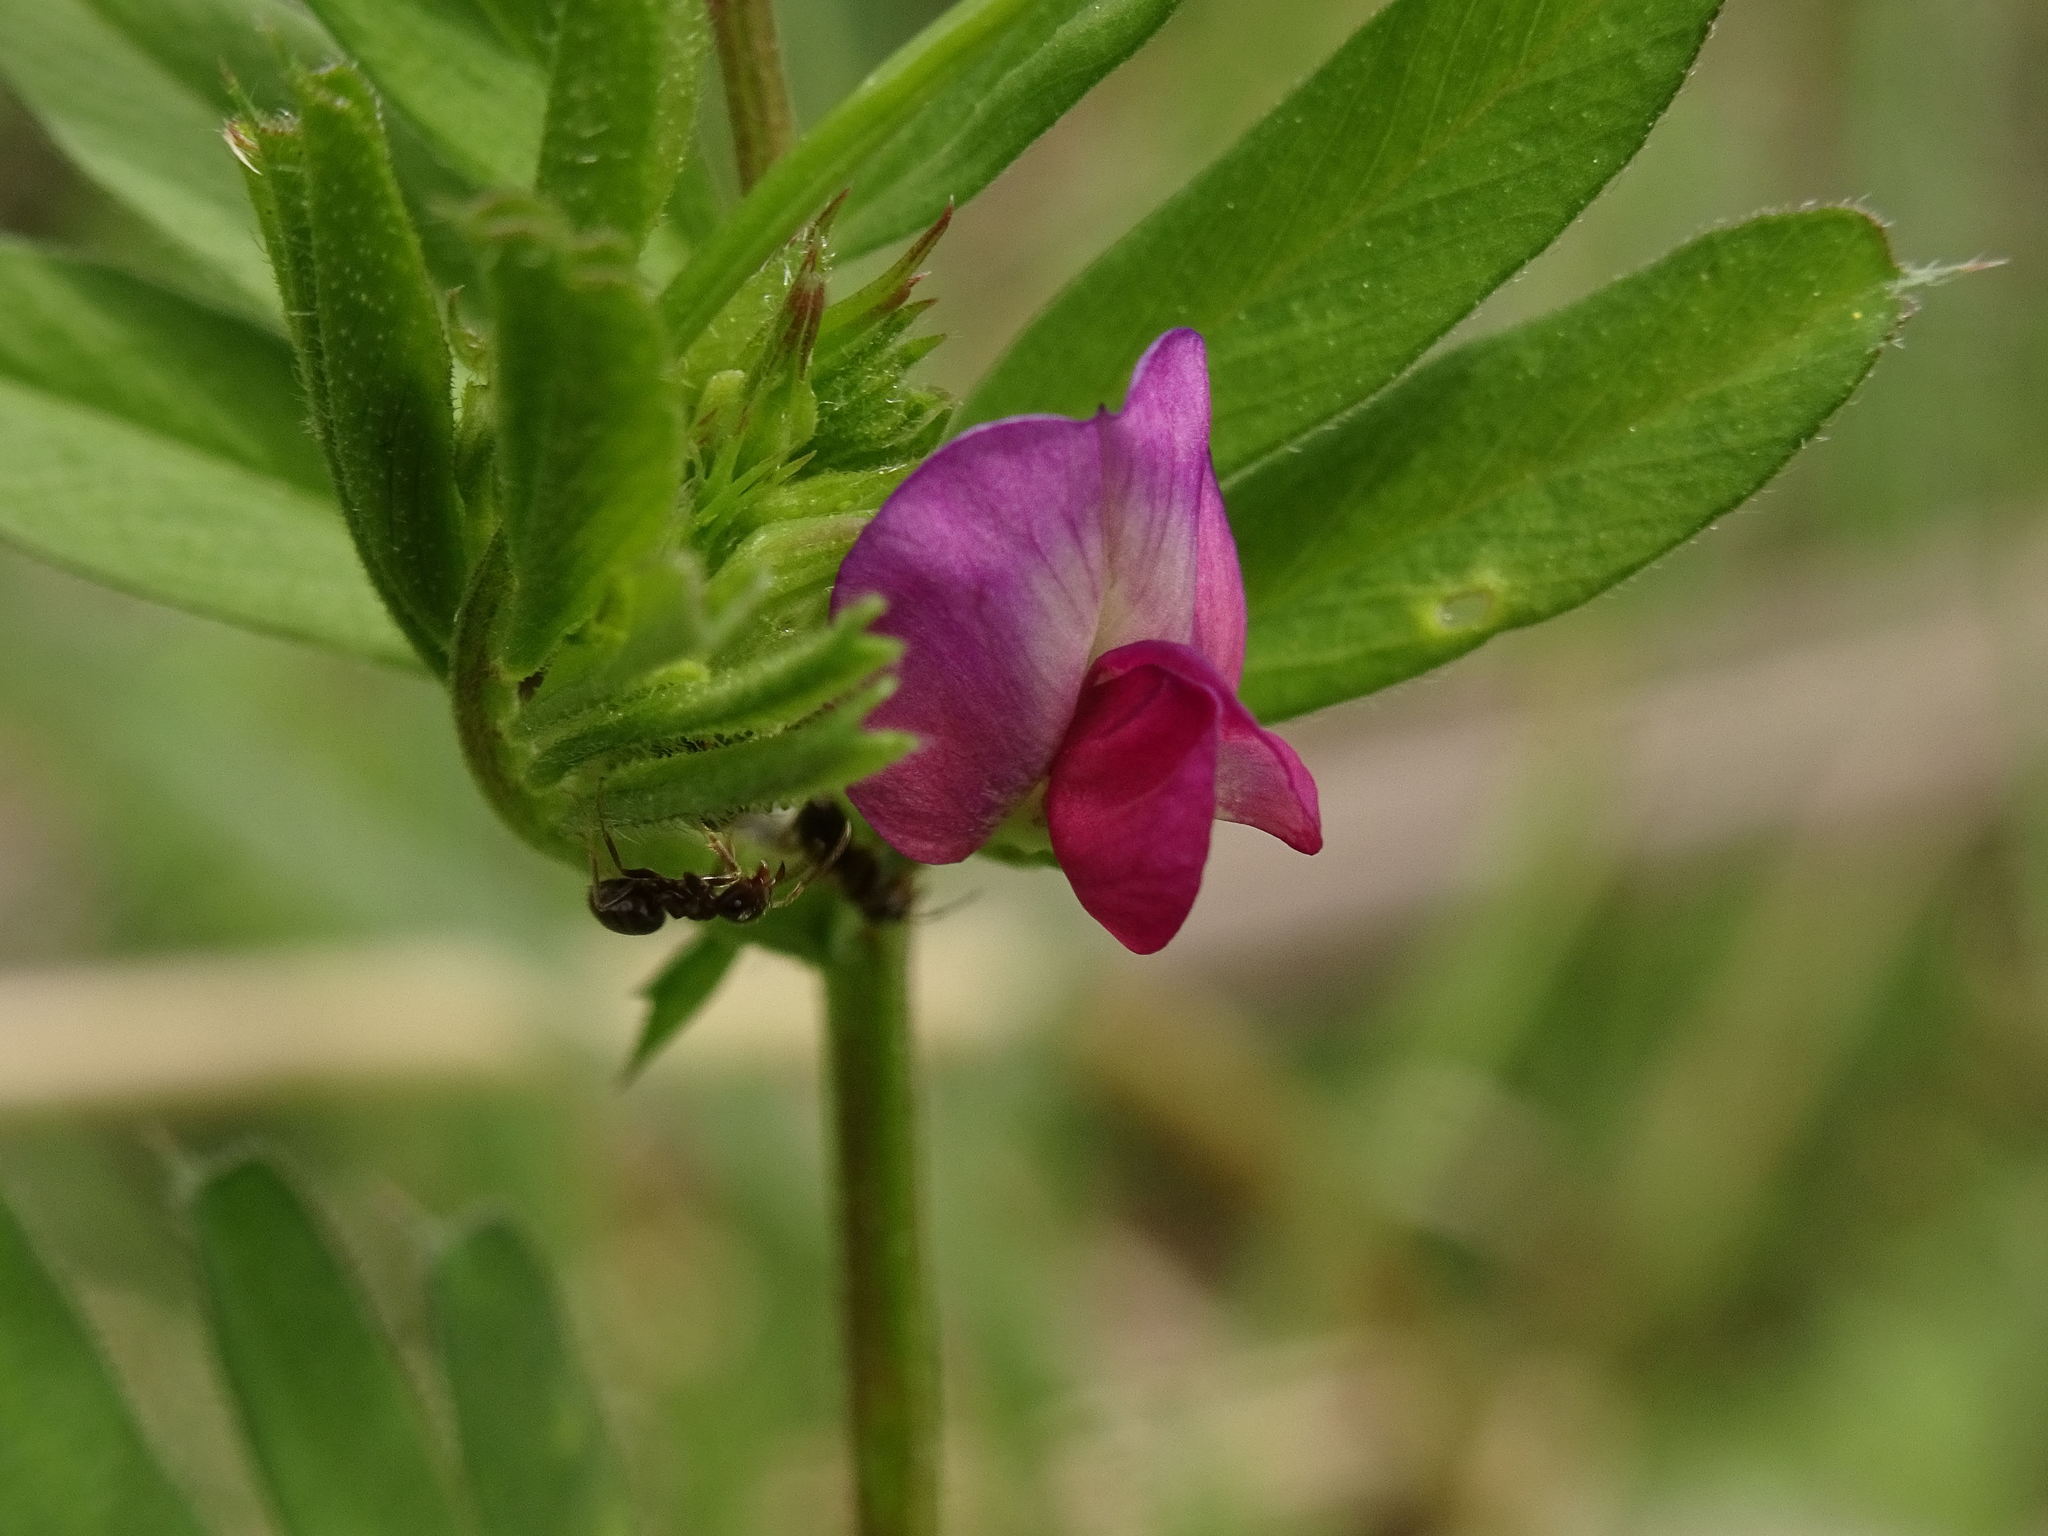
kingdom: Plantae
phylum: Tracheophyta
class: Magnoliopsida
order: Fabales
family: Fabaceae
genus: Vicia
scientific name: Vicia sativa
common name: Garden vetch
